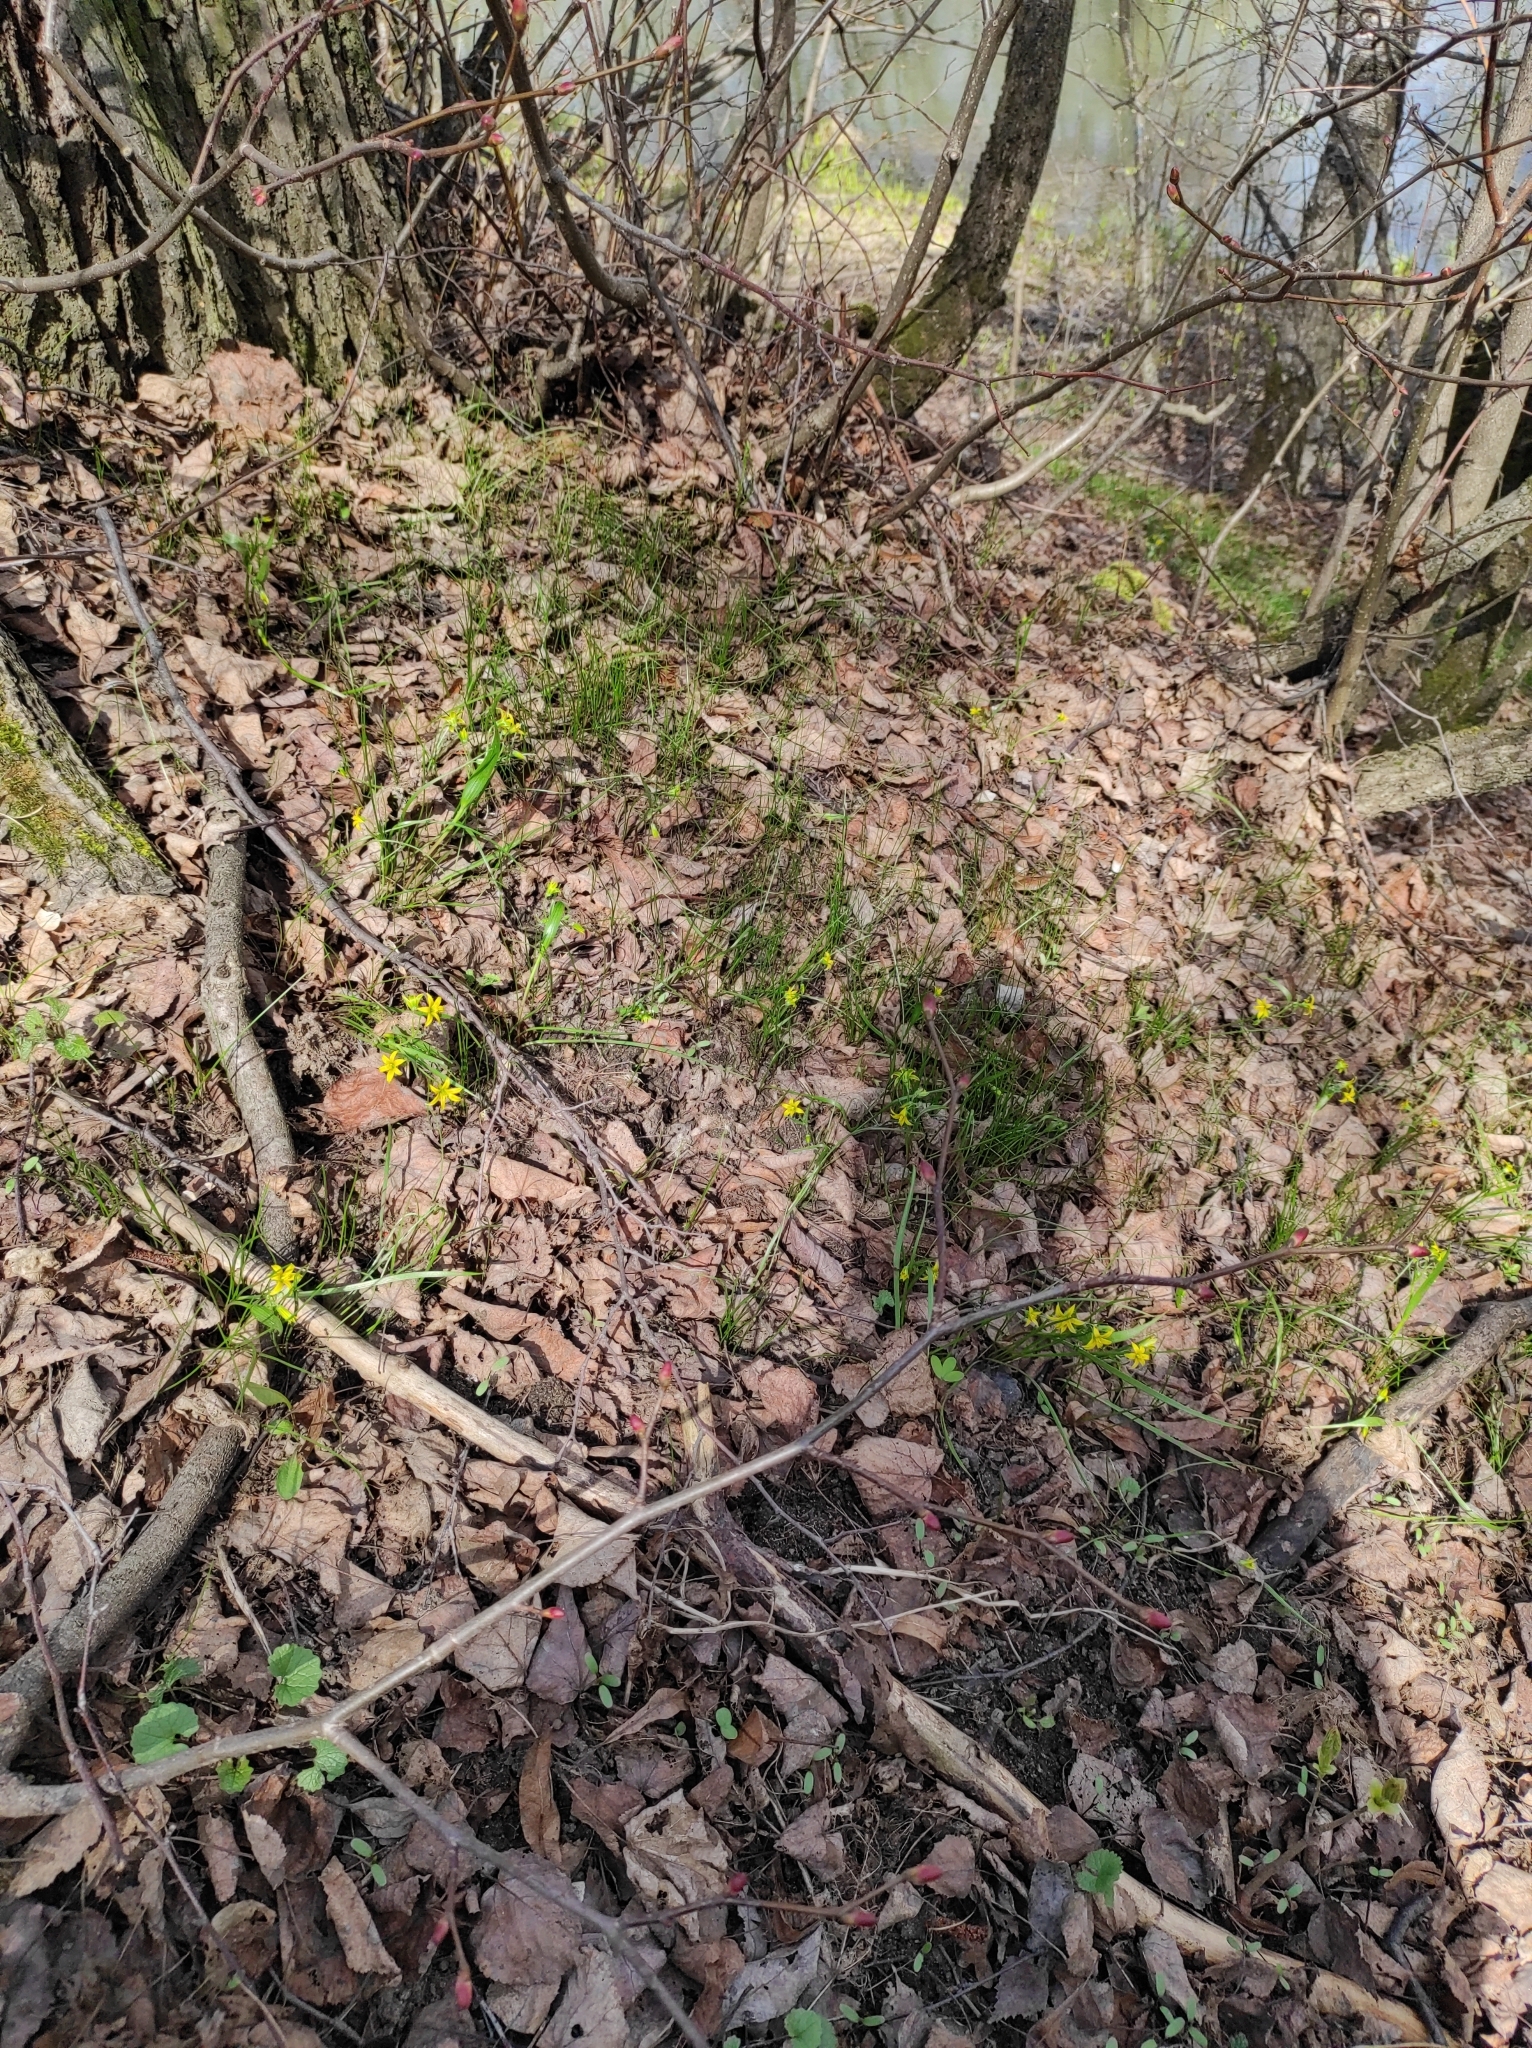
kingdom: Plantae
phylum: Tracheophyta
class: Liliopsida
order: Liliales
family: Liliaceae
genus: Gagea
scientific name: Gagea minima
